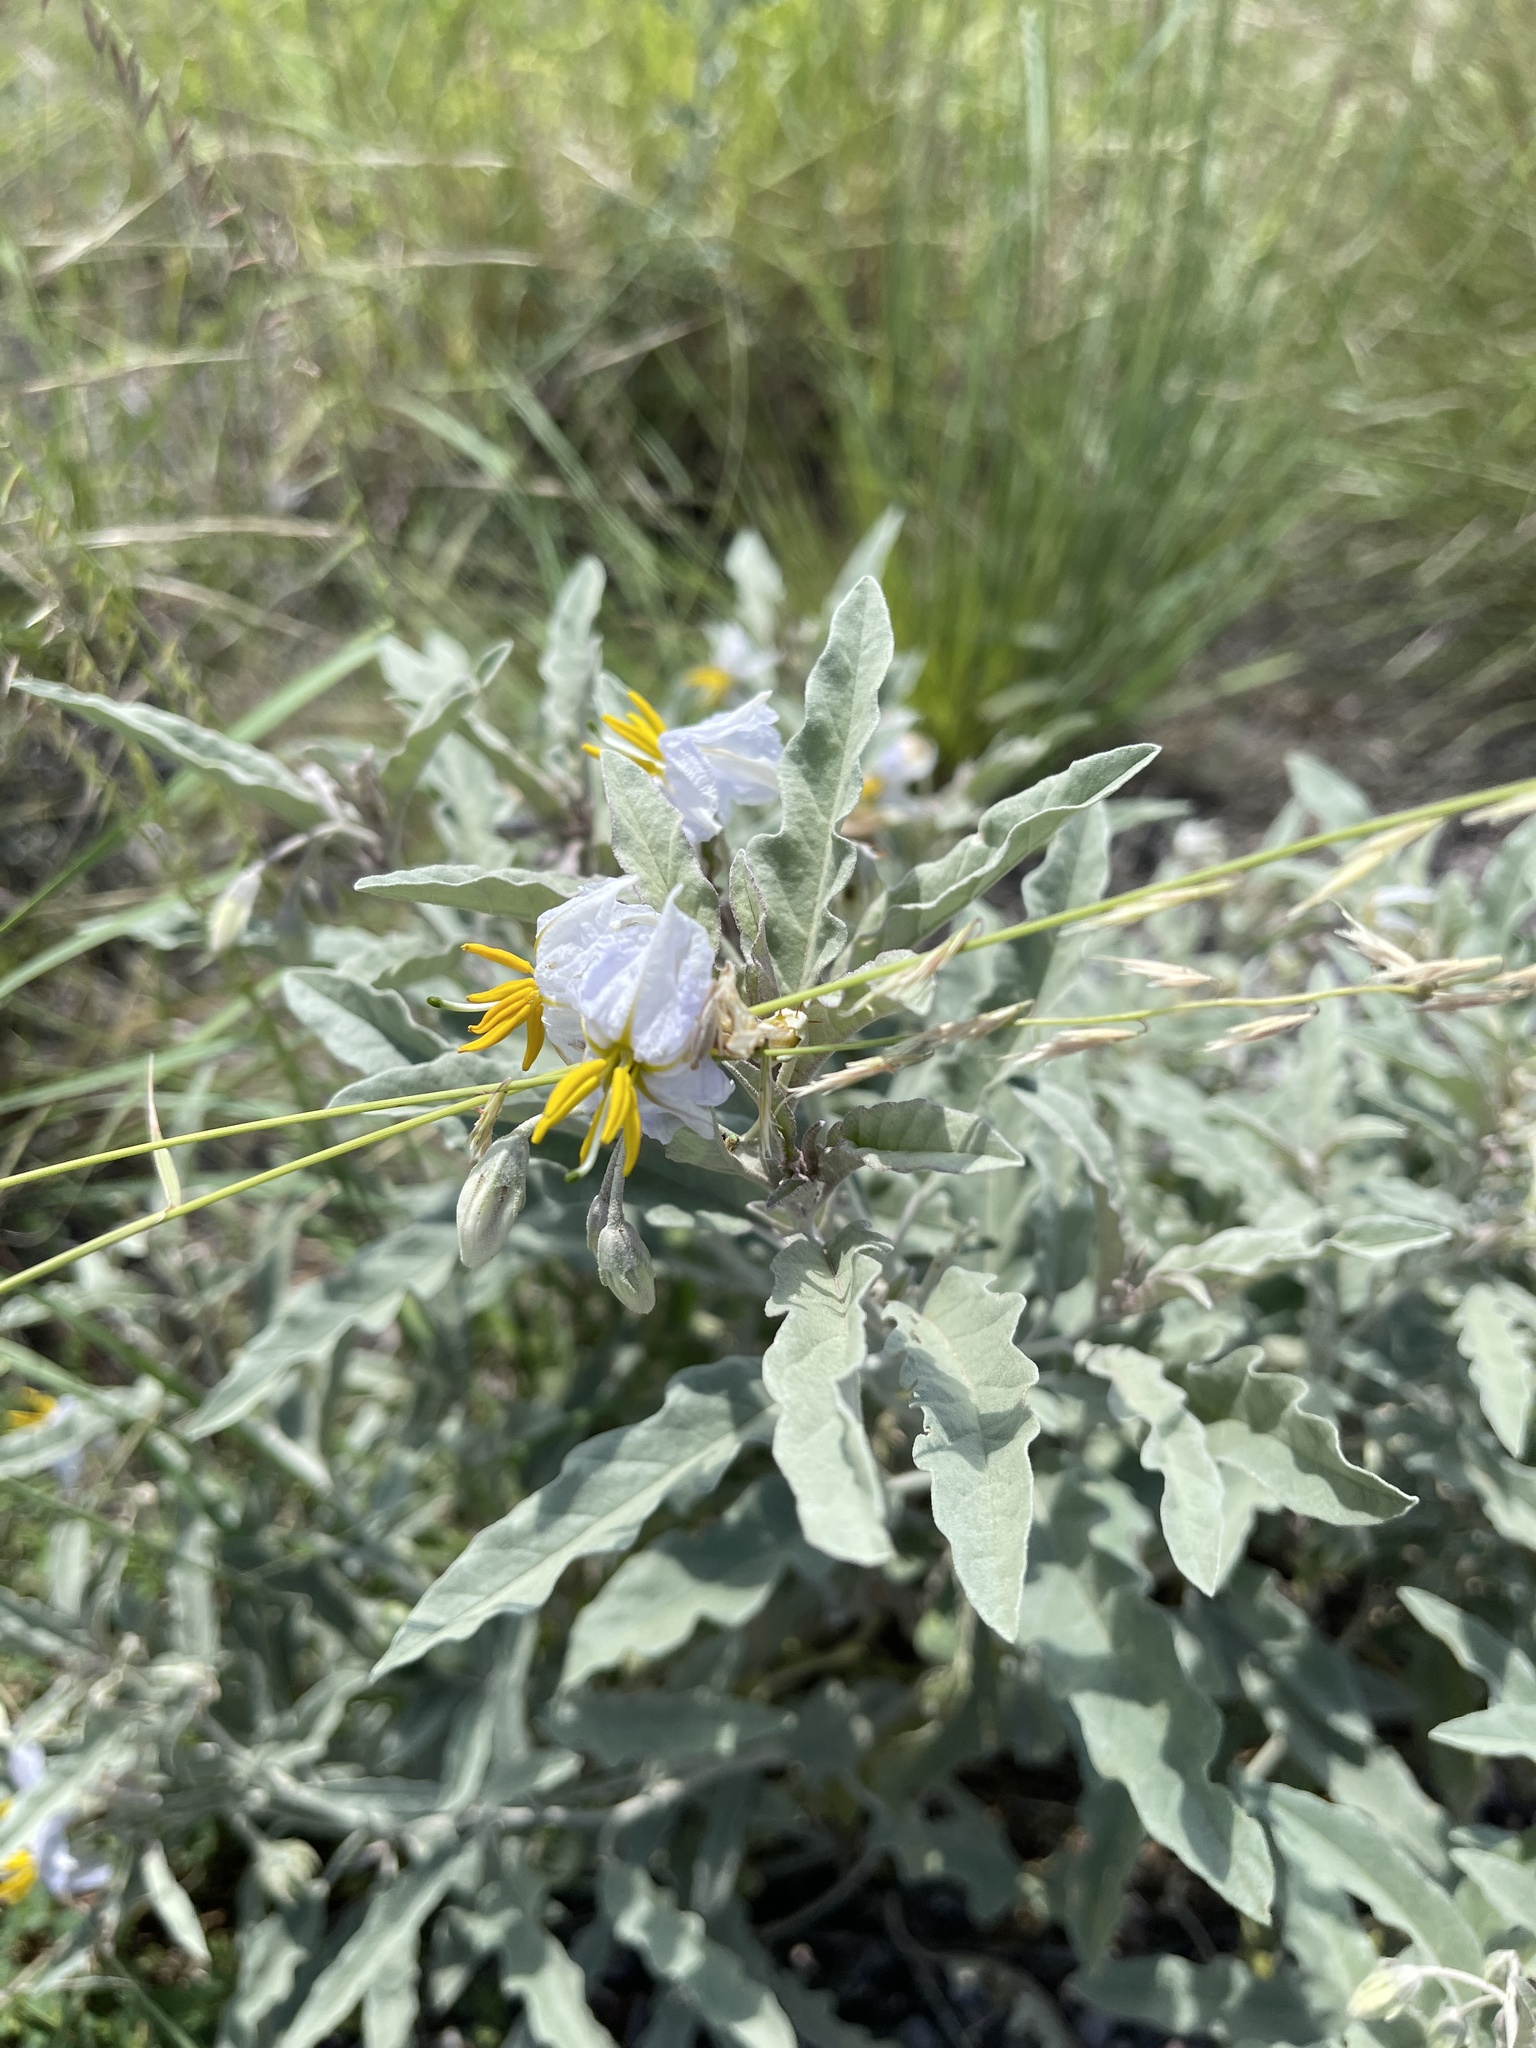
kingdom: Plantae
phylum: Tracheophyta
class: Magnoliopsida
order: Solanales
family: Solanaceae
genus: Solanum
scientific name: Solanum elaeagnifolium
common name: Silverleaf nightshade
